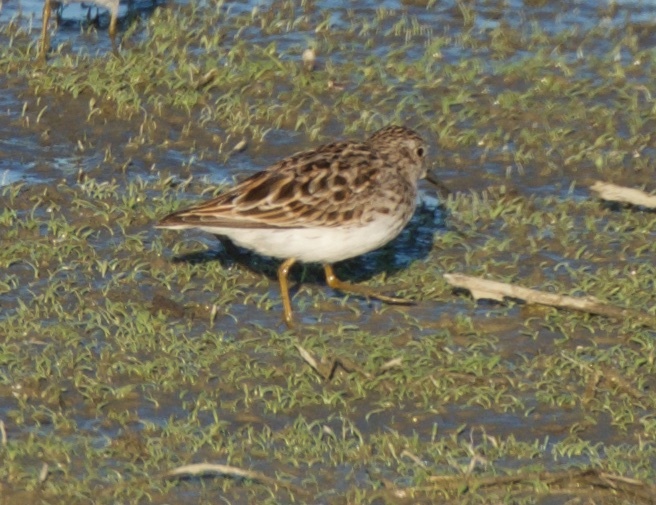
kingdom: Animalia
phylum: Chordata
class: Aves
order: Charadriiformes
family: Scolopacidae
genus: Calidris
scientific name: Calidris minutilla
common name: Least sandpiper
